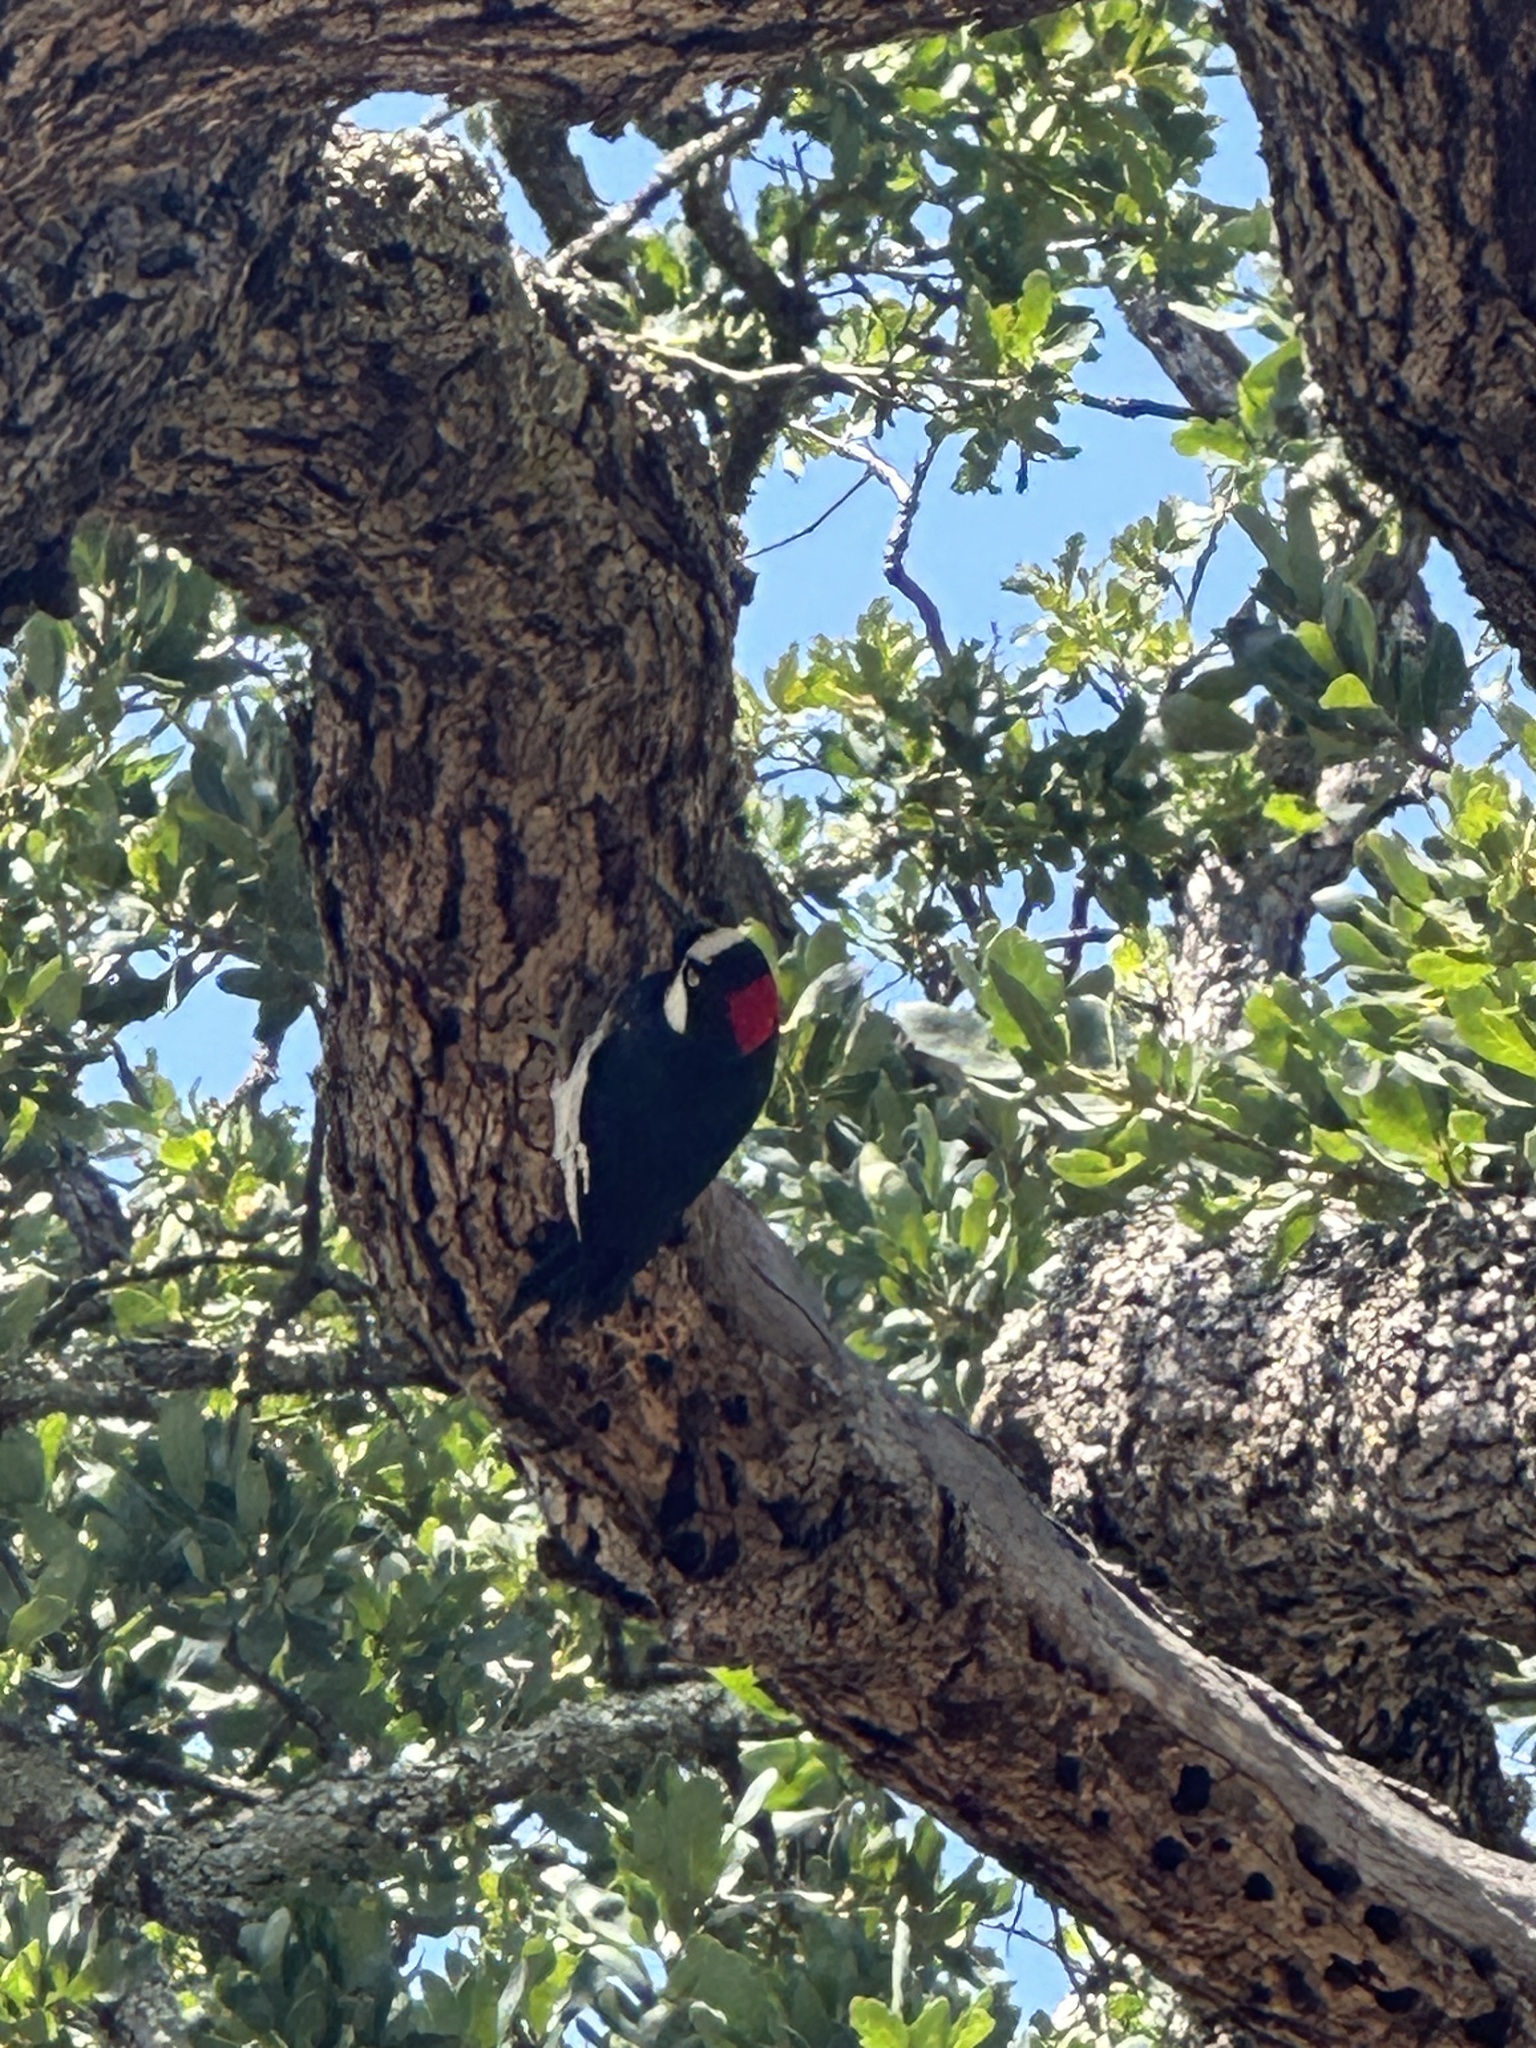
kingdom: Animalia
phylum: Chordata
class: Aves
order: Piciformes
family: Picidae
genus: Melanerpes
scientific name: Melanerpes formicivorus
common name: Acorn woodpecker
